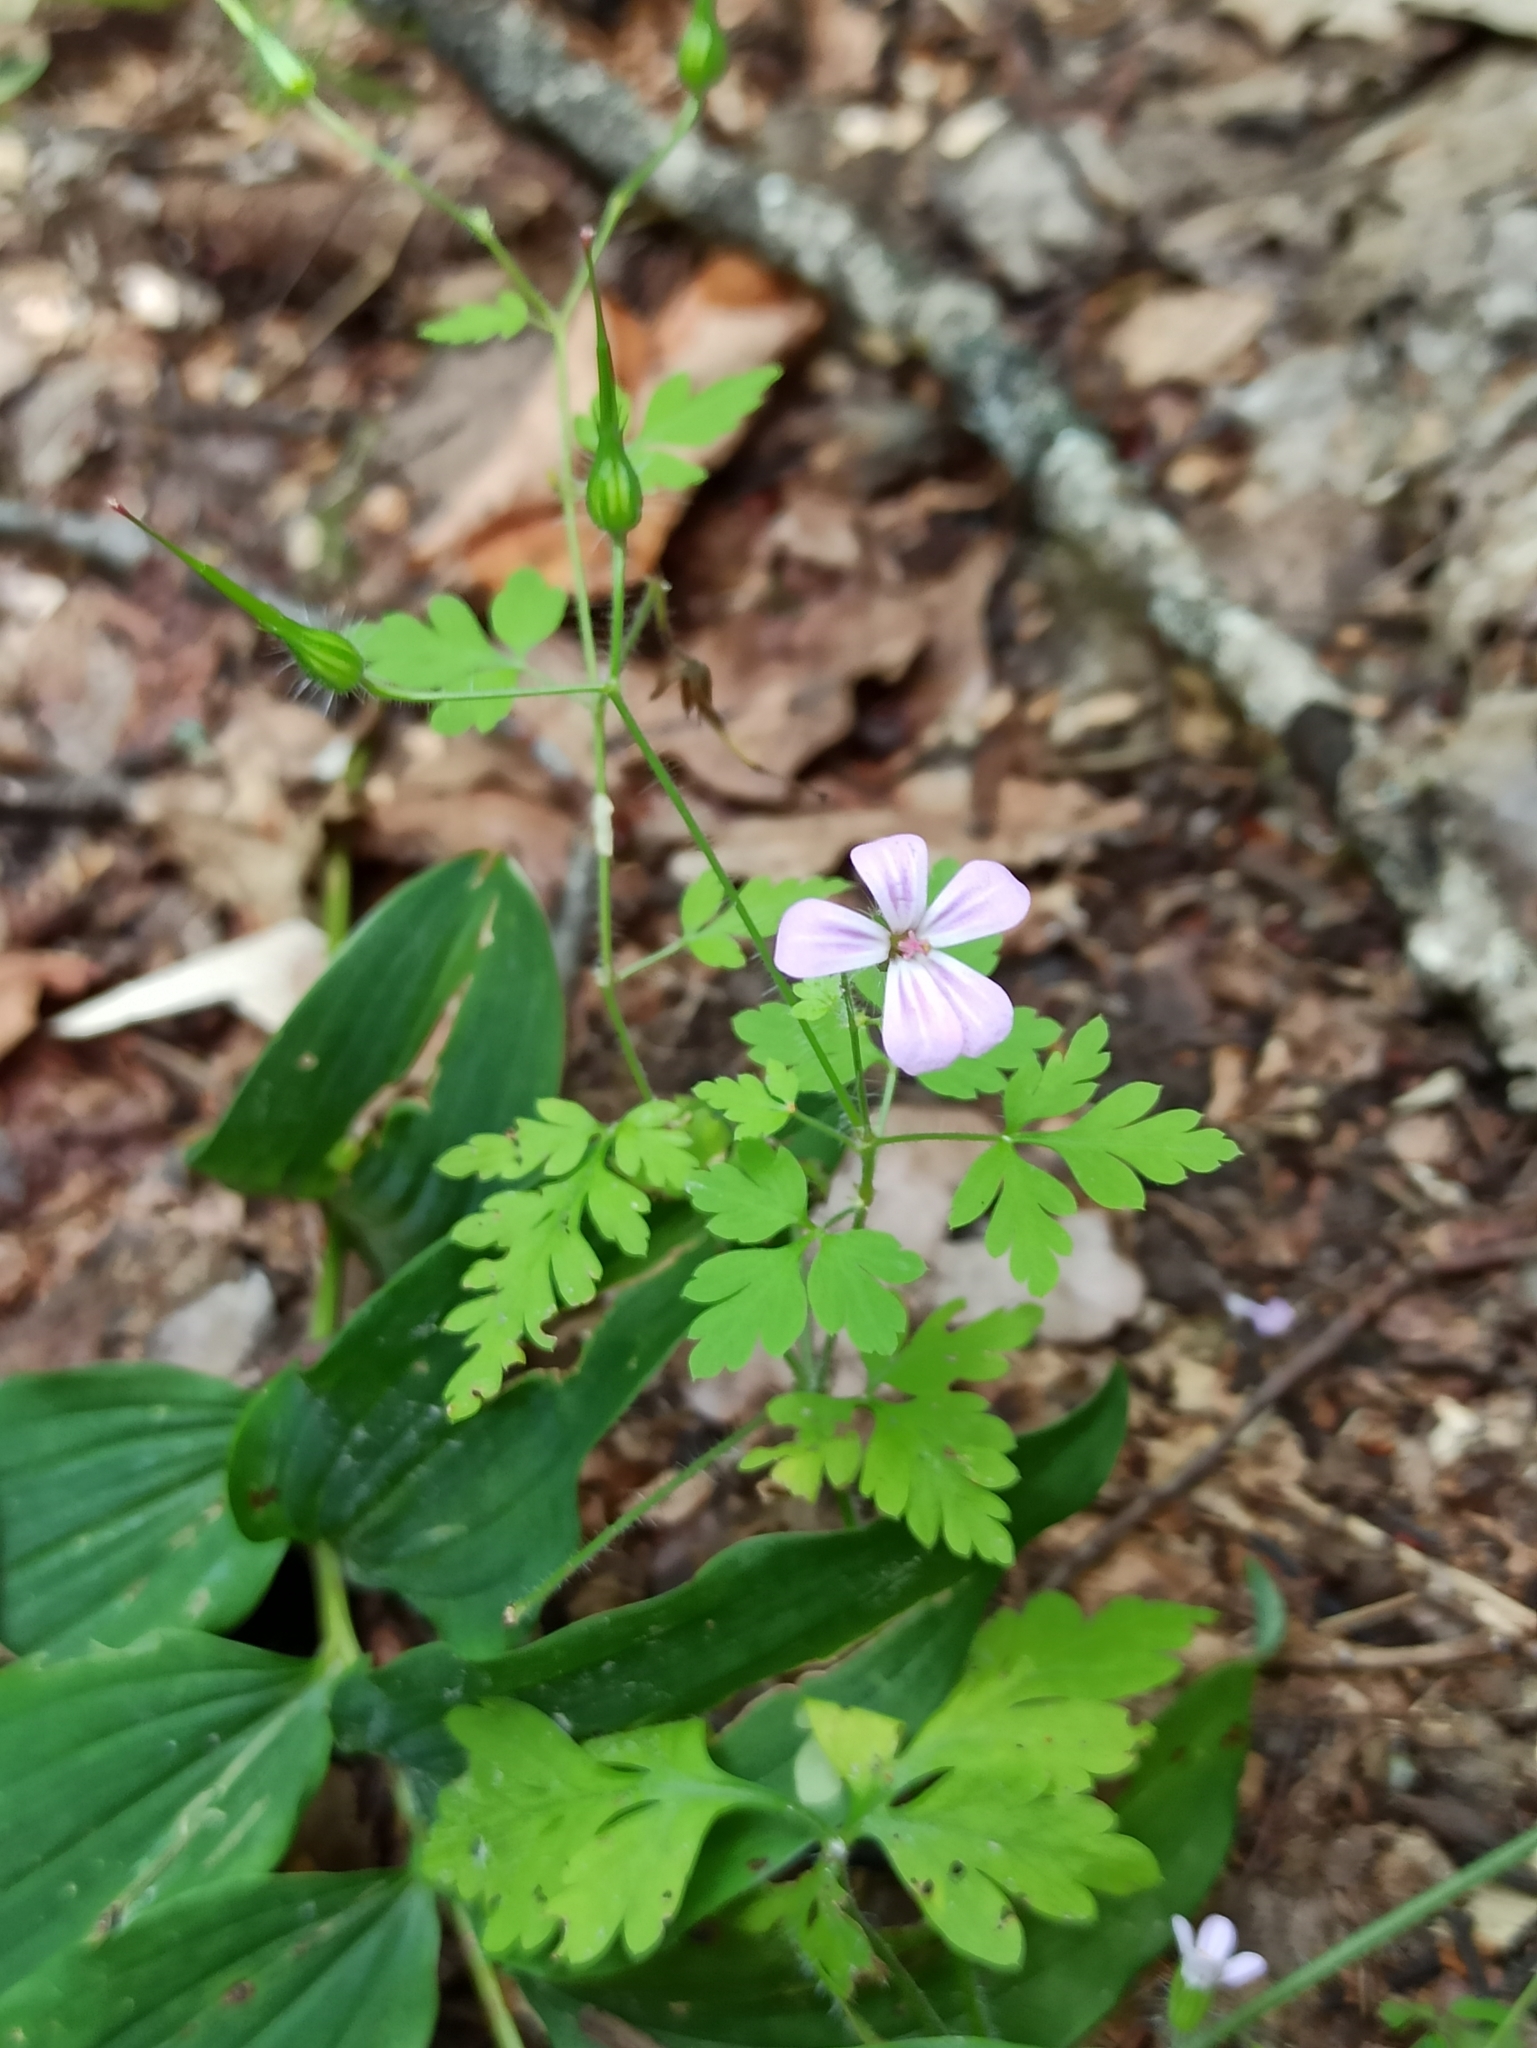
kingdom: Plantae
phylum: Tracheophyta
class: Magnoliopsida
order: Geraniales
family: Geraniaceae
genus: Geranium
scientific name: Geranium robertianum
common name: Herb-robert
